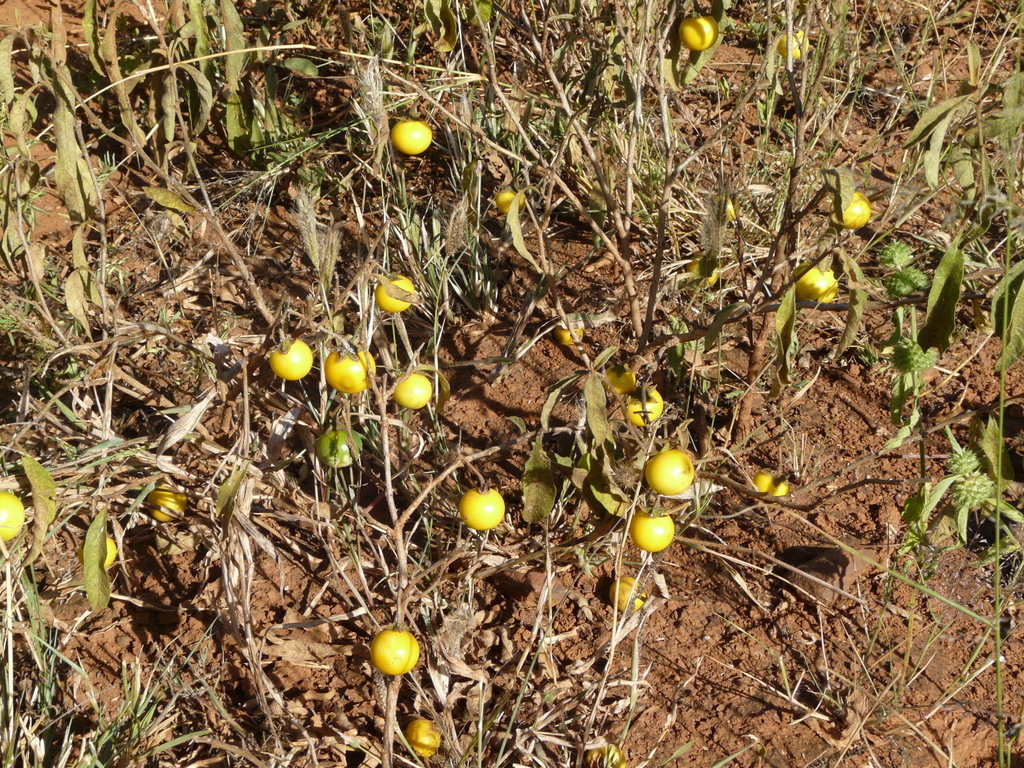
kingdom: Plantae
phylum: Tracheophyta
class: Magnoliopsida
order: Solanales
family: Solanaceae
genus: Solanum
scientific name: Solanum campylacanthum
